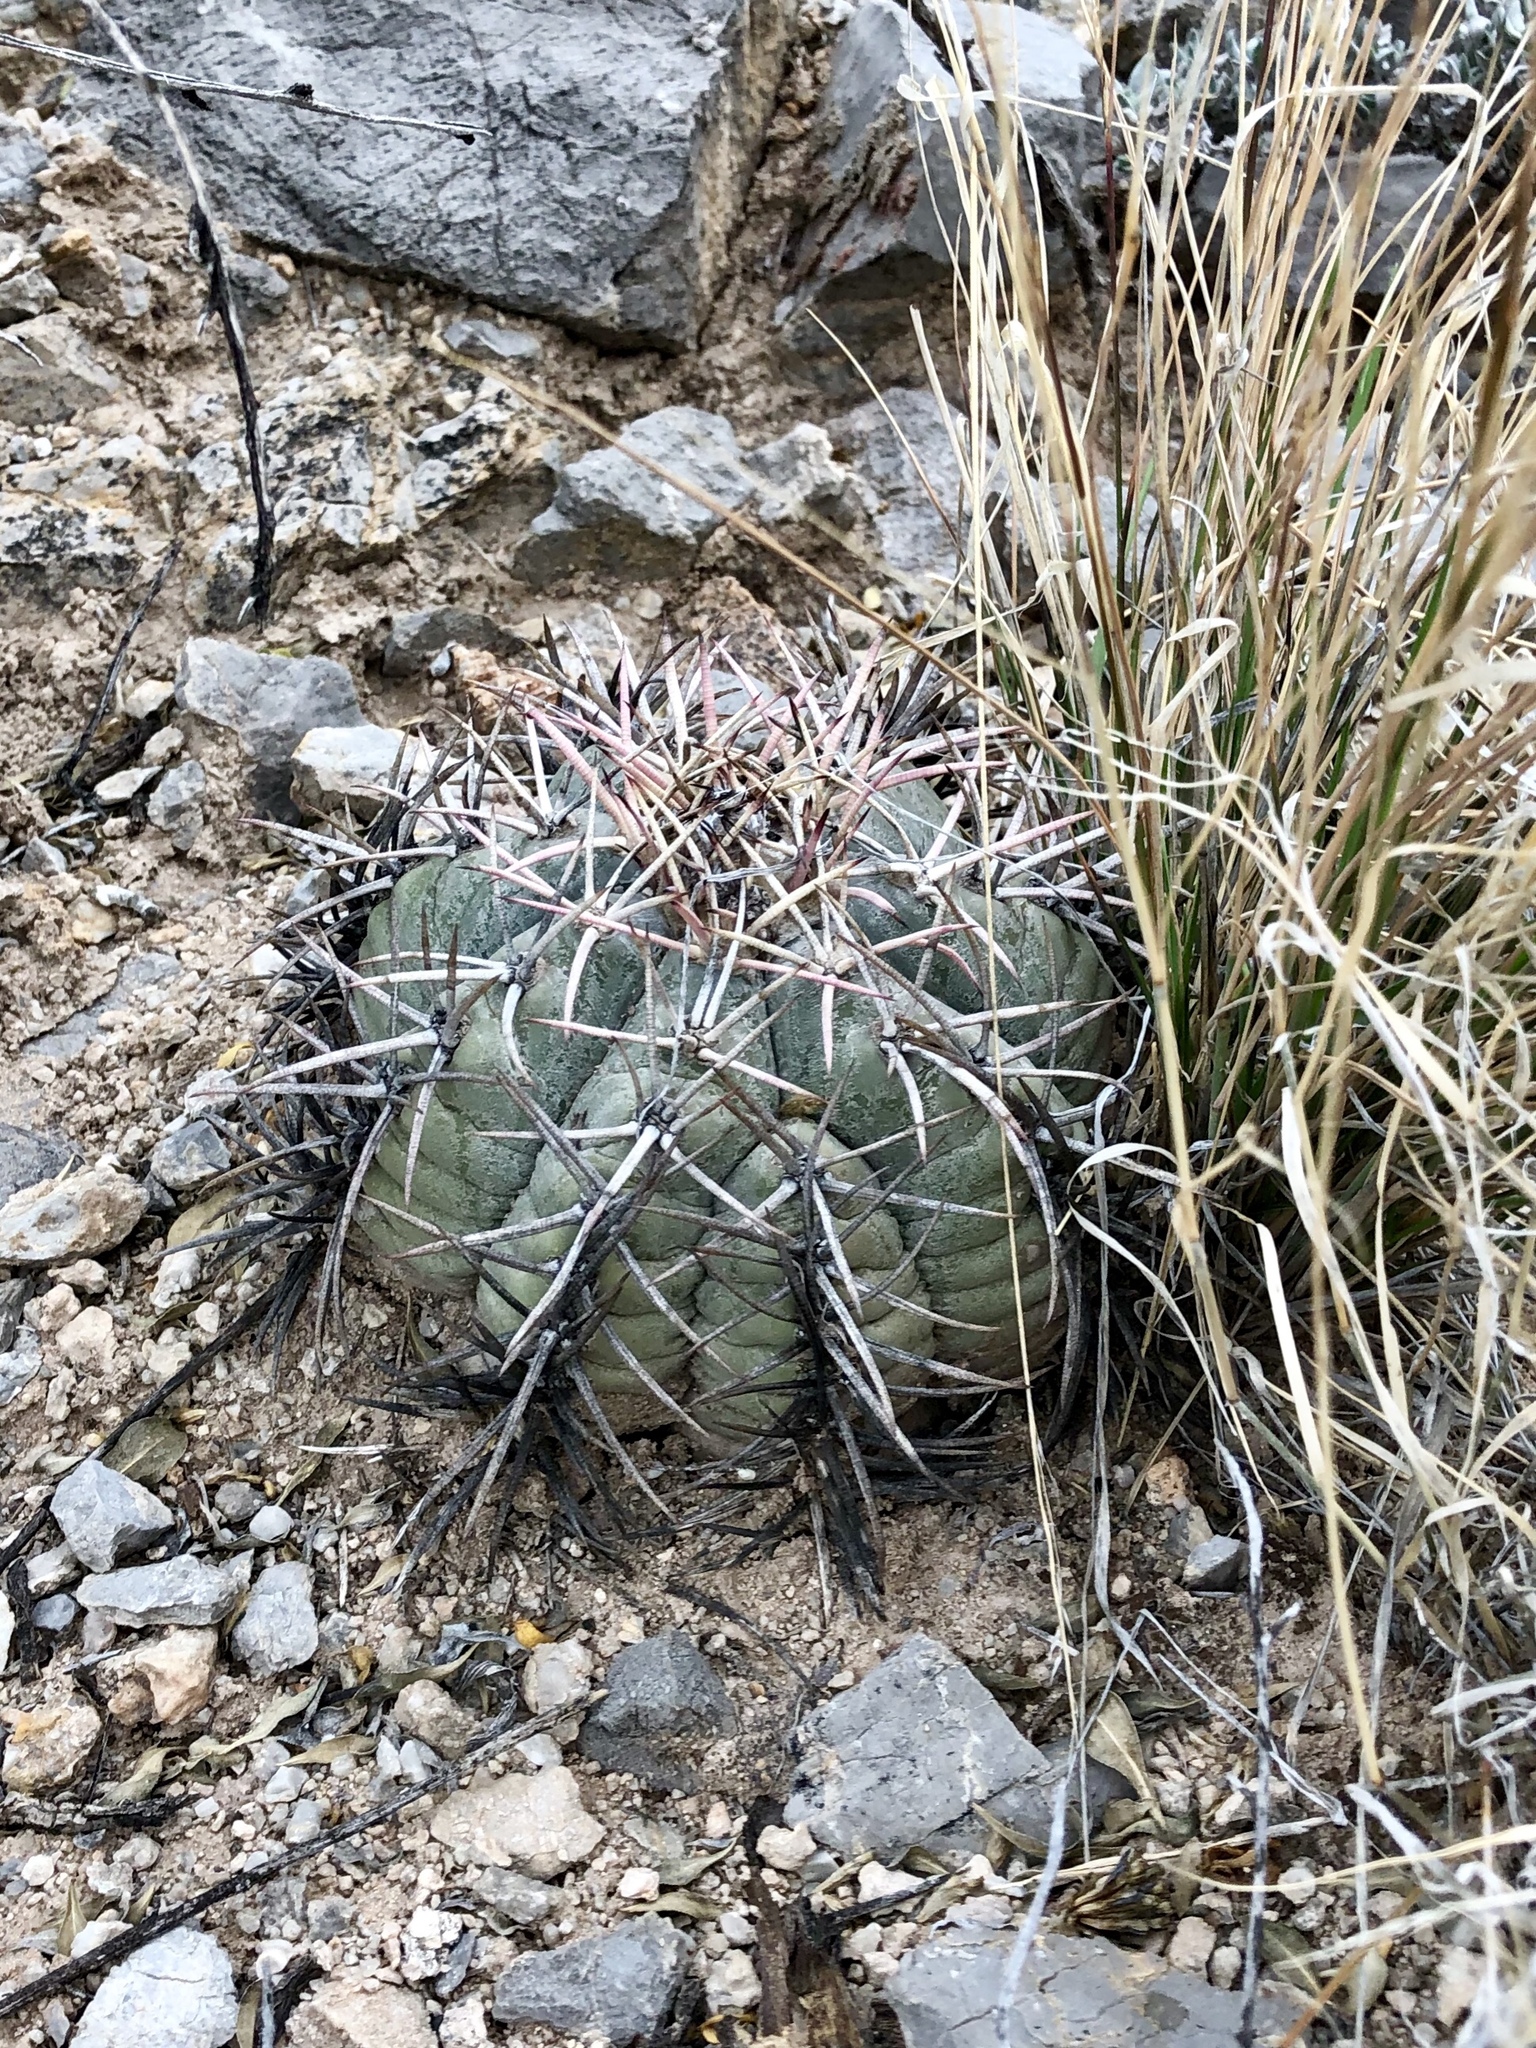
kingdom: Plantae
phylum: Tracheophyta
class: Magnoliopsida
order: Caryophyllales
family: Cactaceae
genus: Echinocactus
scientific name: Echinocactus horizonthalonius
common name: Devilshead
